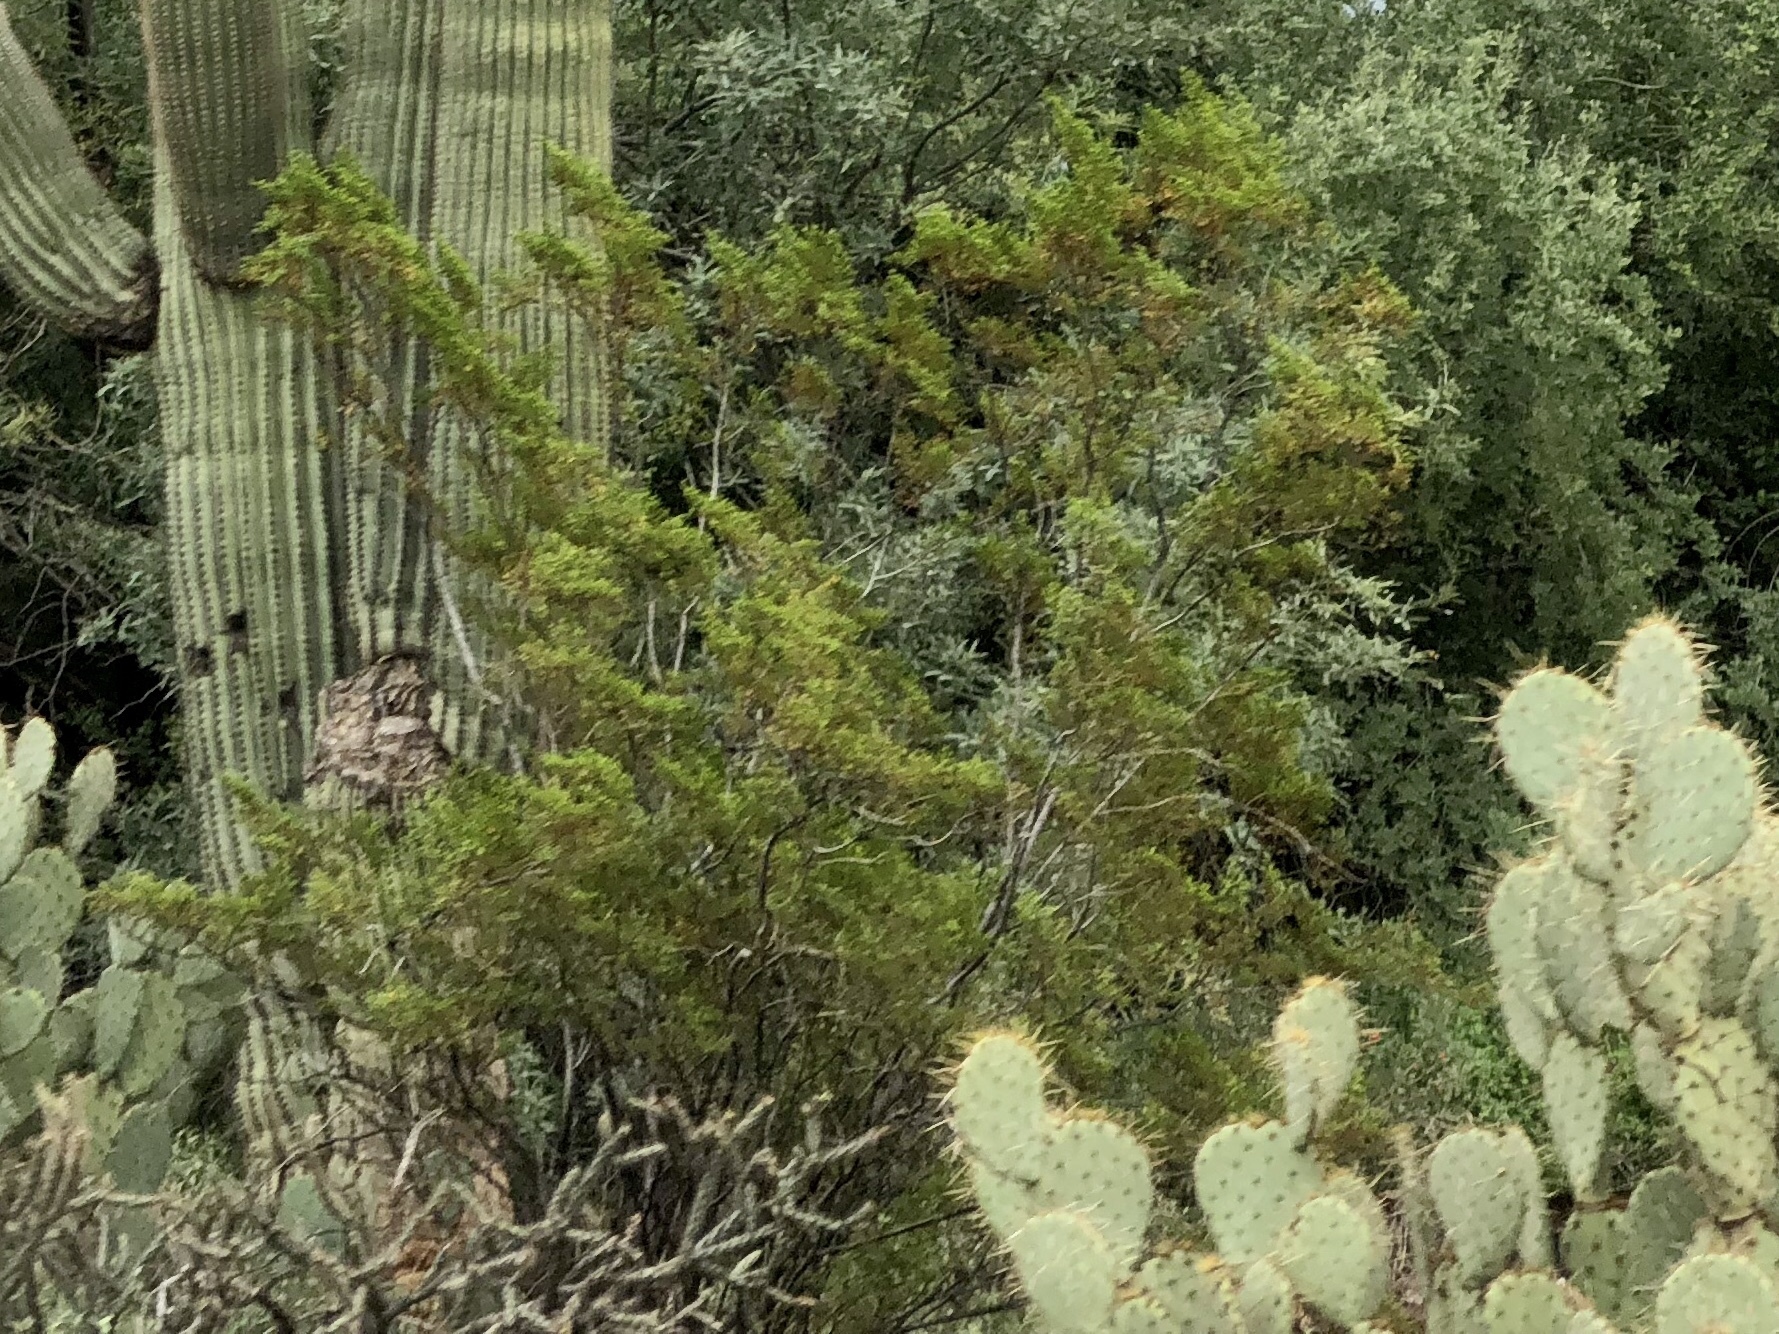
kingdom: Plantae
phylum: Tracheophyta
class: Magnoliopsida
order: Zygophyllales
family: Zygophyllaceae
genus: Larrea
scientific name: Larrea tridentata
